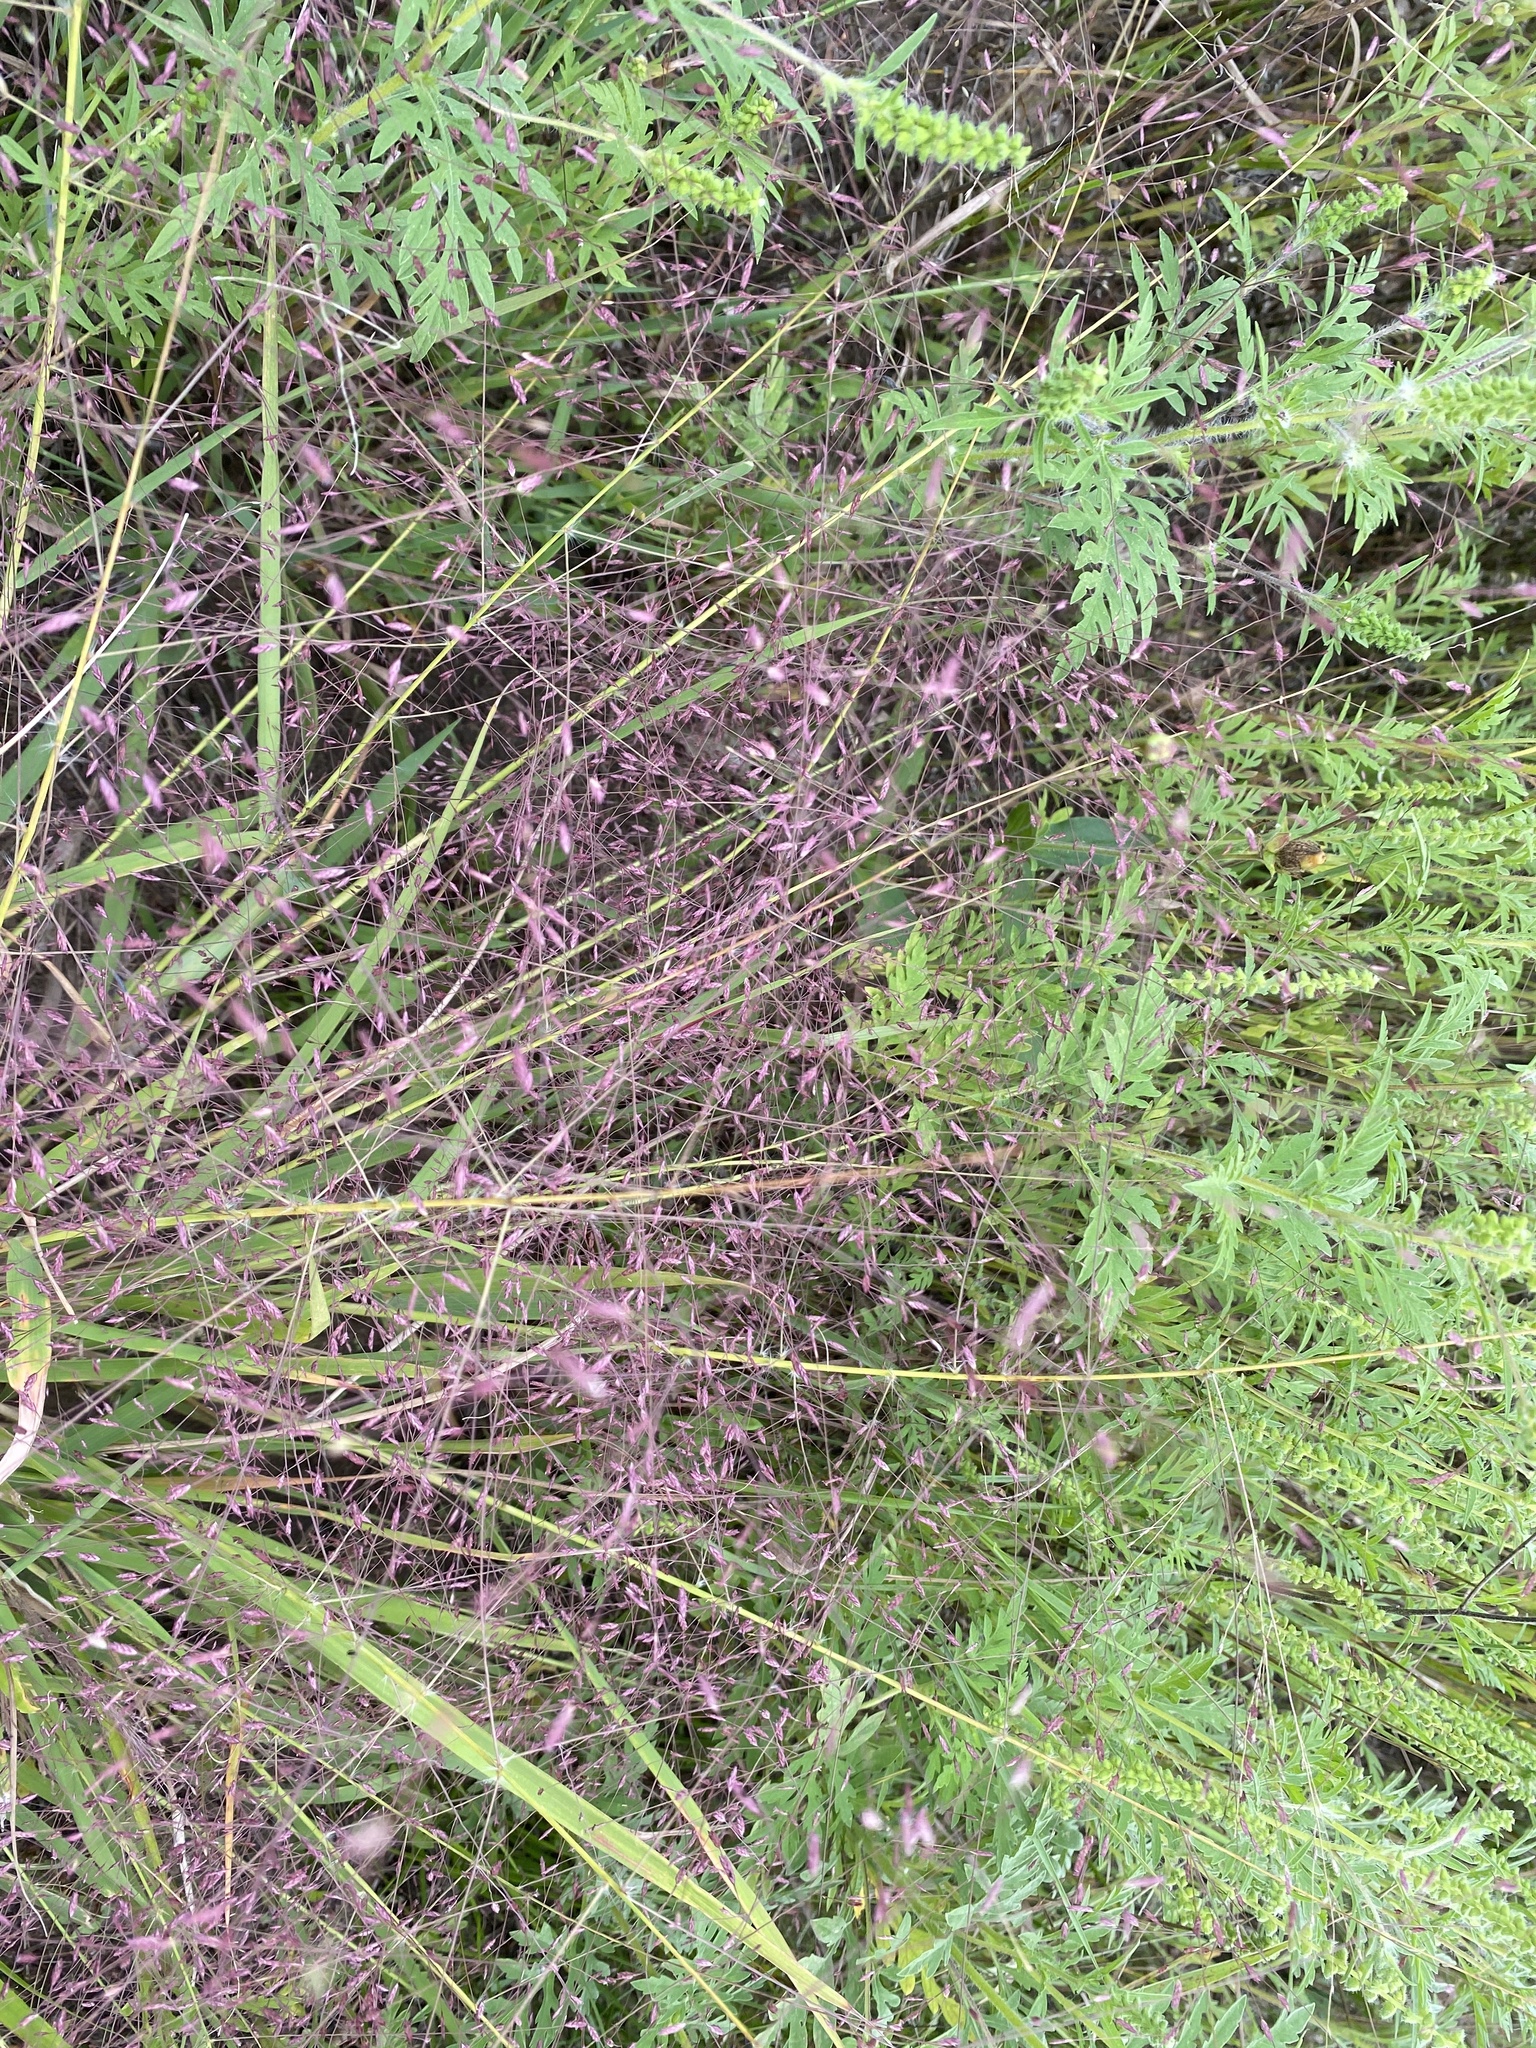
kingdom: Plantae
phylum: Tracheophyta
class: Liliopsida
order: Poales
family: Poaceae
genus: Eragrostis
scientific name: Eragrostis spectabilis
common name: Petticoat-climber
